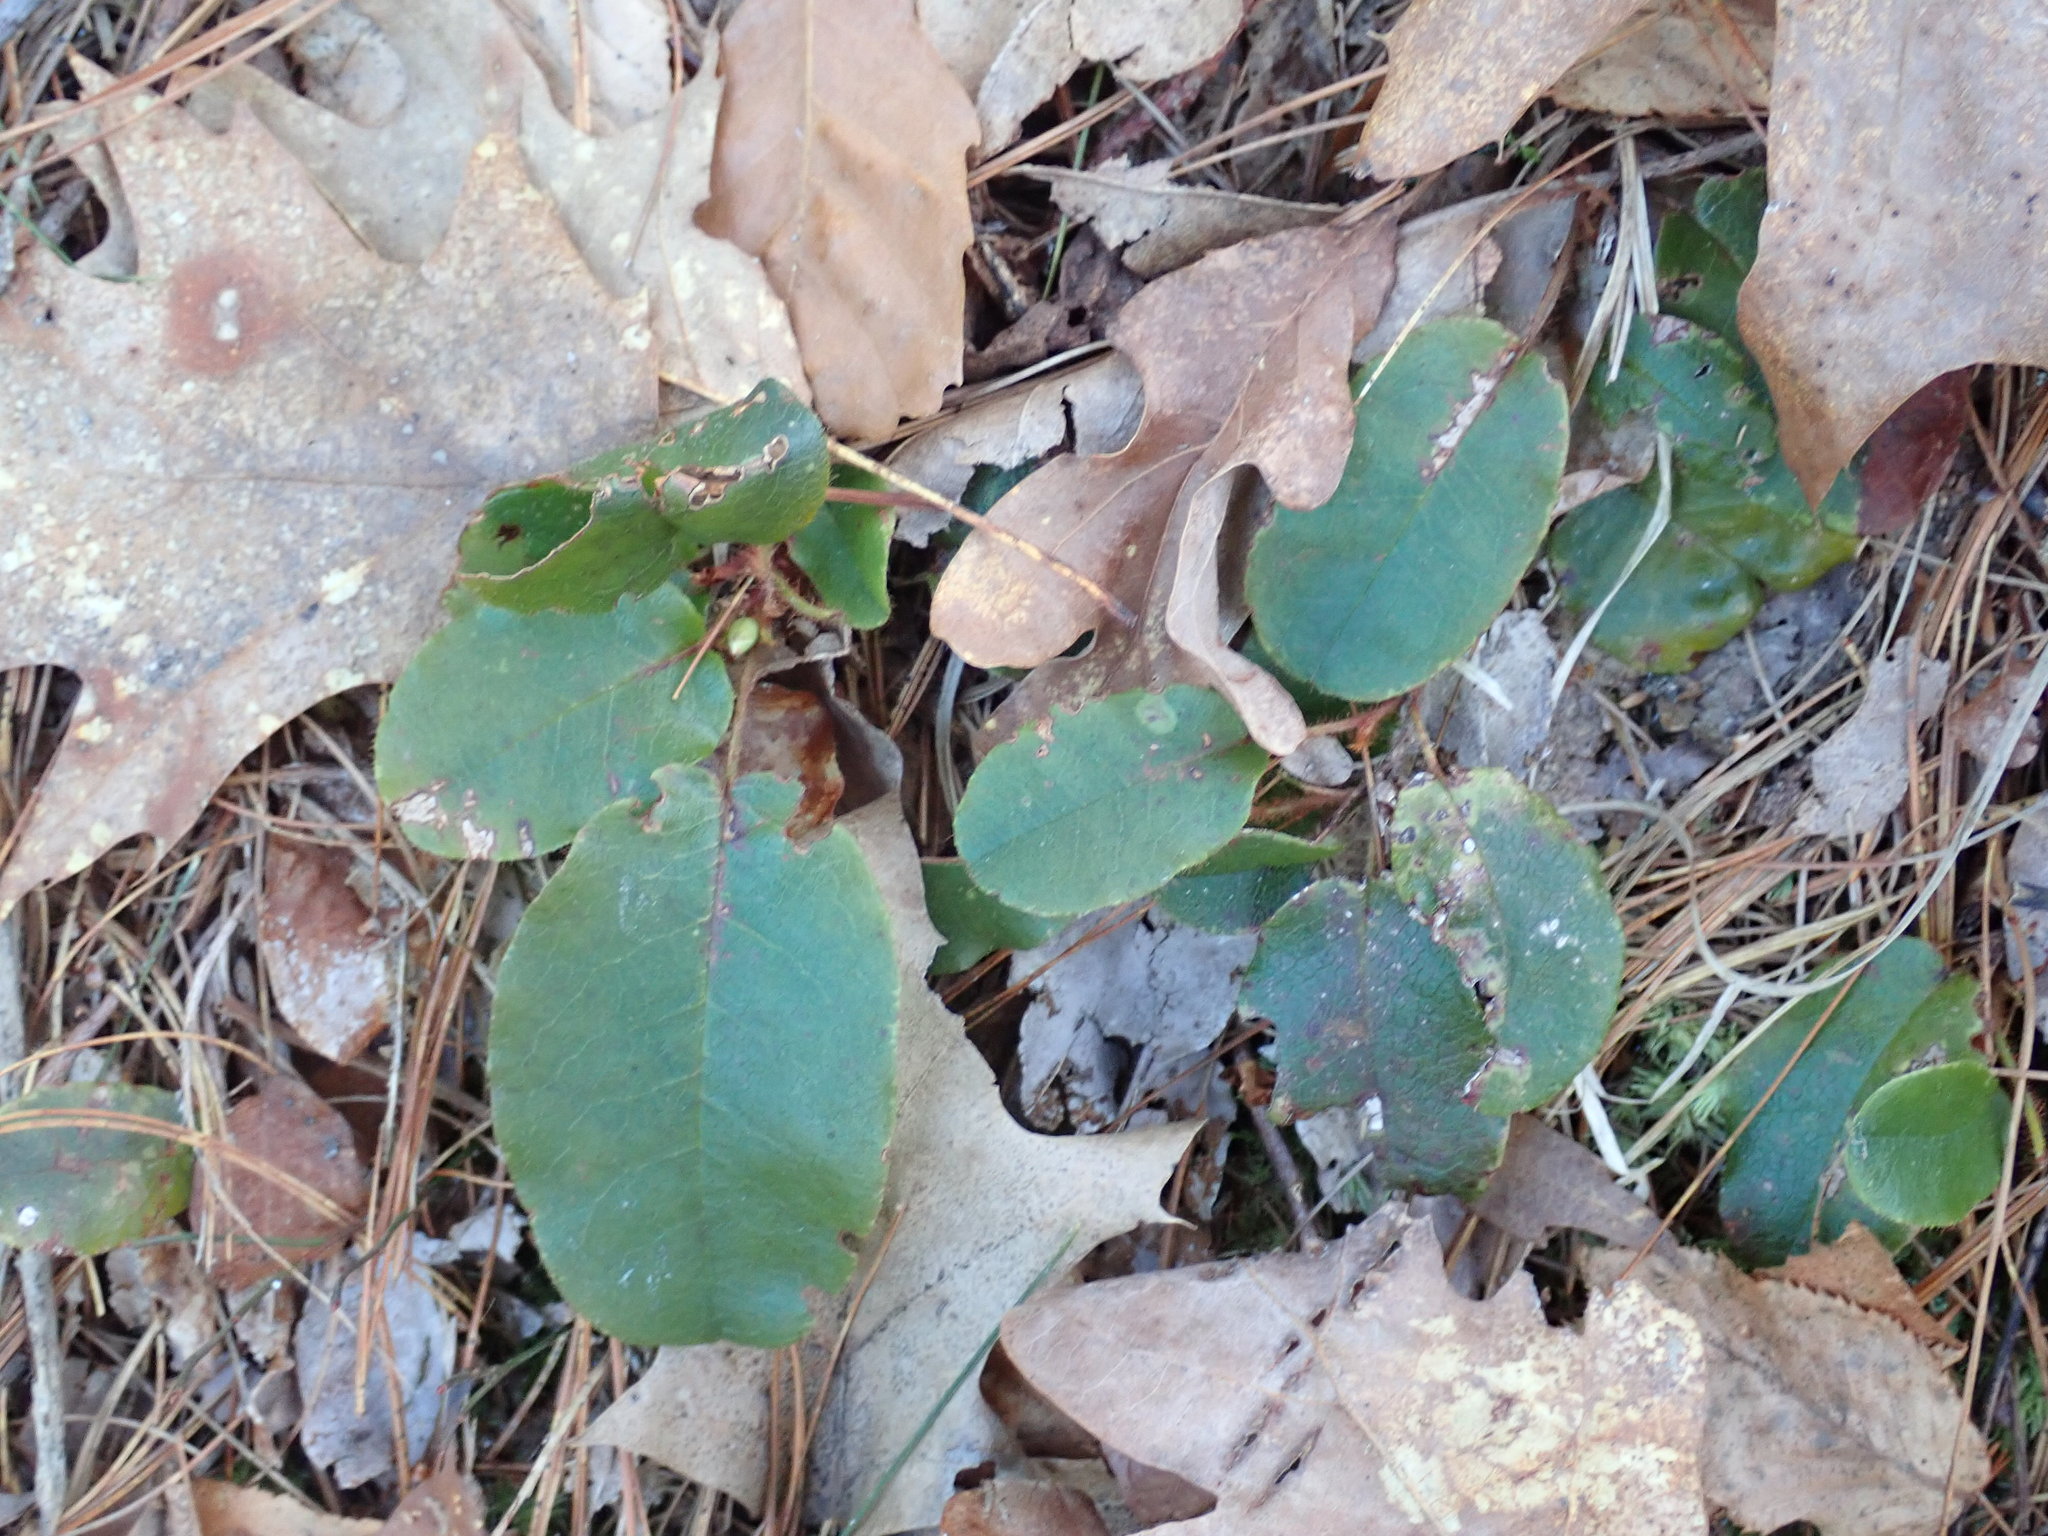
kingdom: Plantae
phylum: Tracheophyta
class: Magnoliopsida
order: Ericales
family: Ericaceae
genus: Epigaea
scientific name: Epigaea repens
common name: Gravelroot
